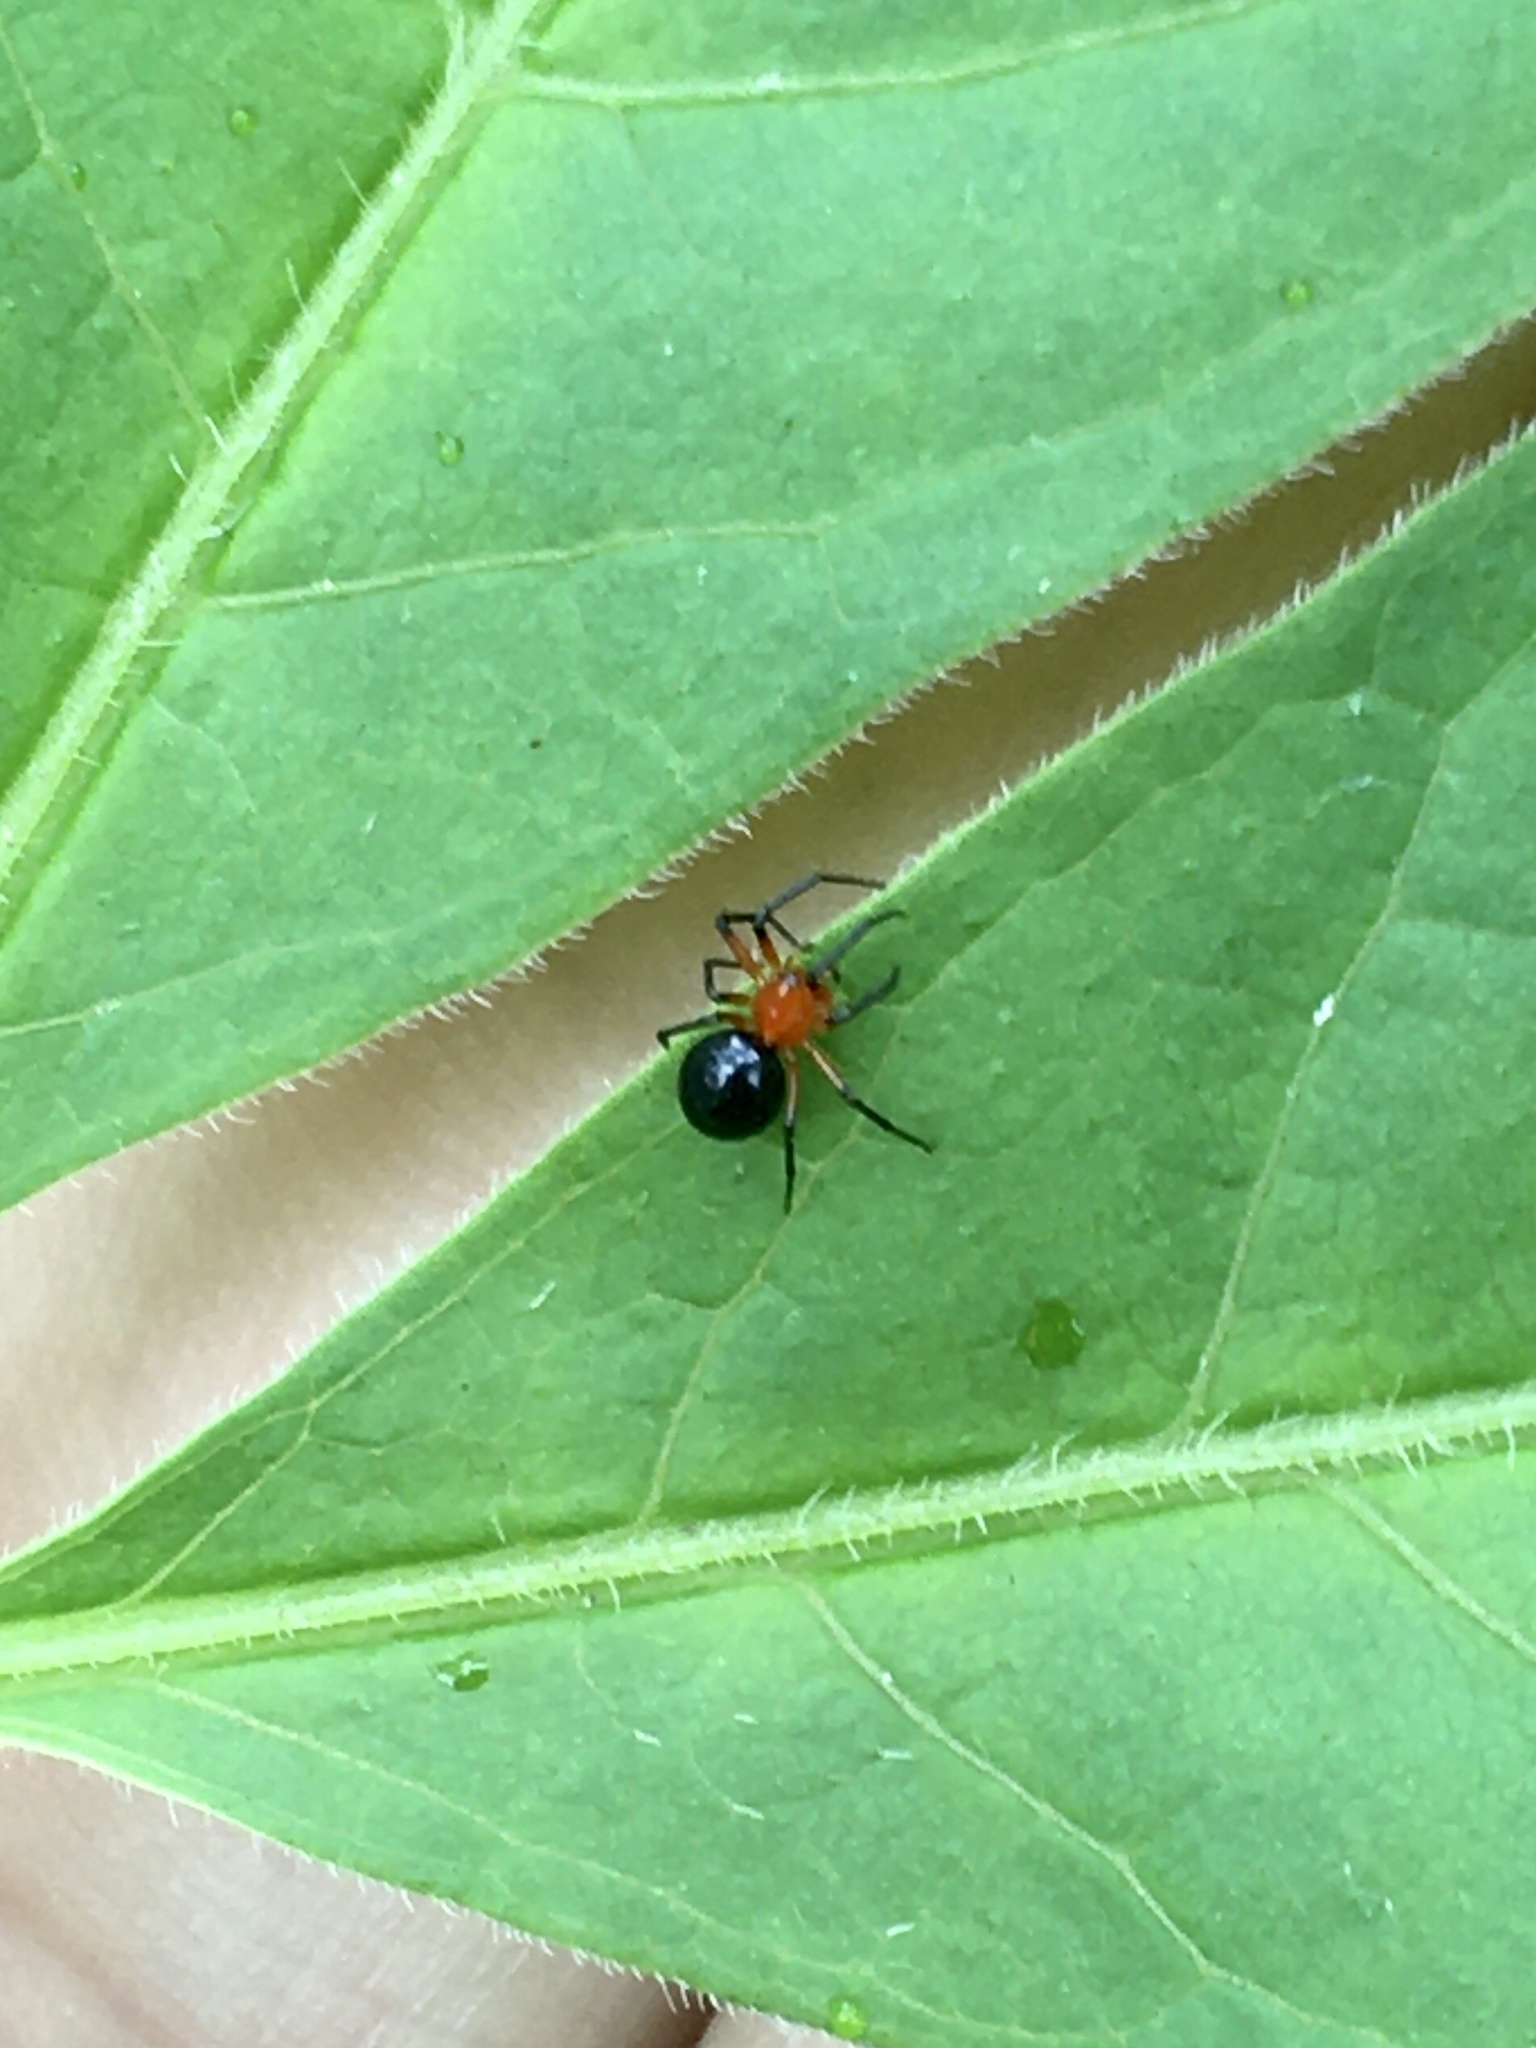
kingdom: Animalia
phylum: Arthropoda
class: Arachnida
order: Araneae
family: Linyphiidae
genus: Hypselistes
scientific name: Hypselistes florens
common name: Peatland sheetweb weaver
